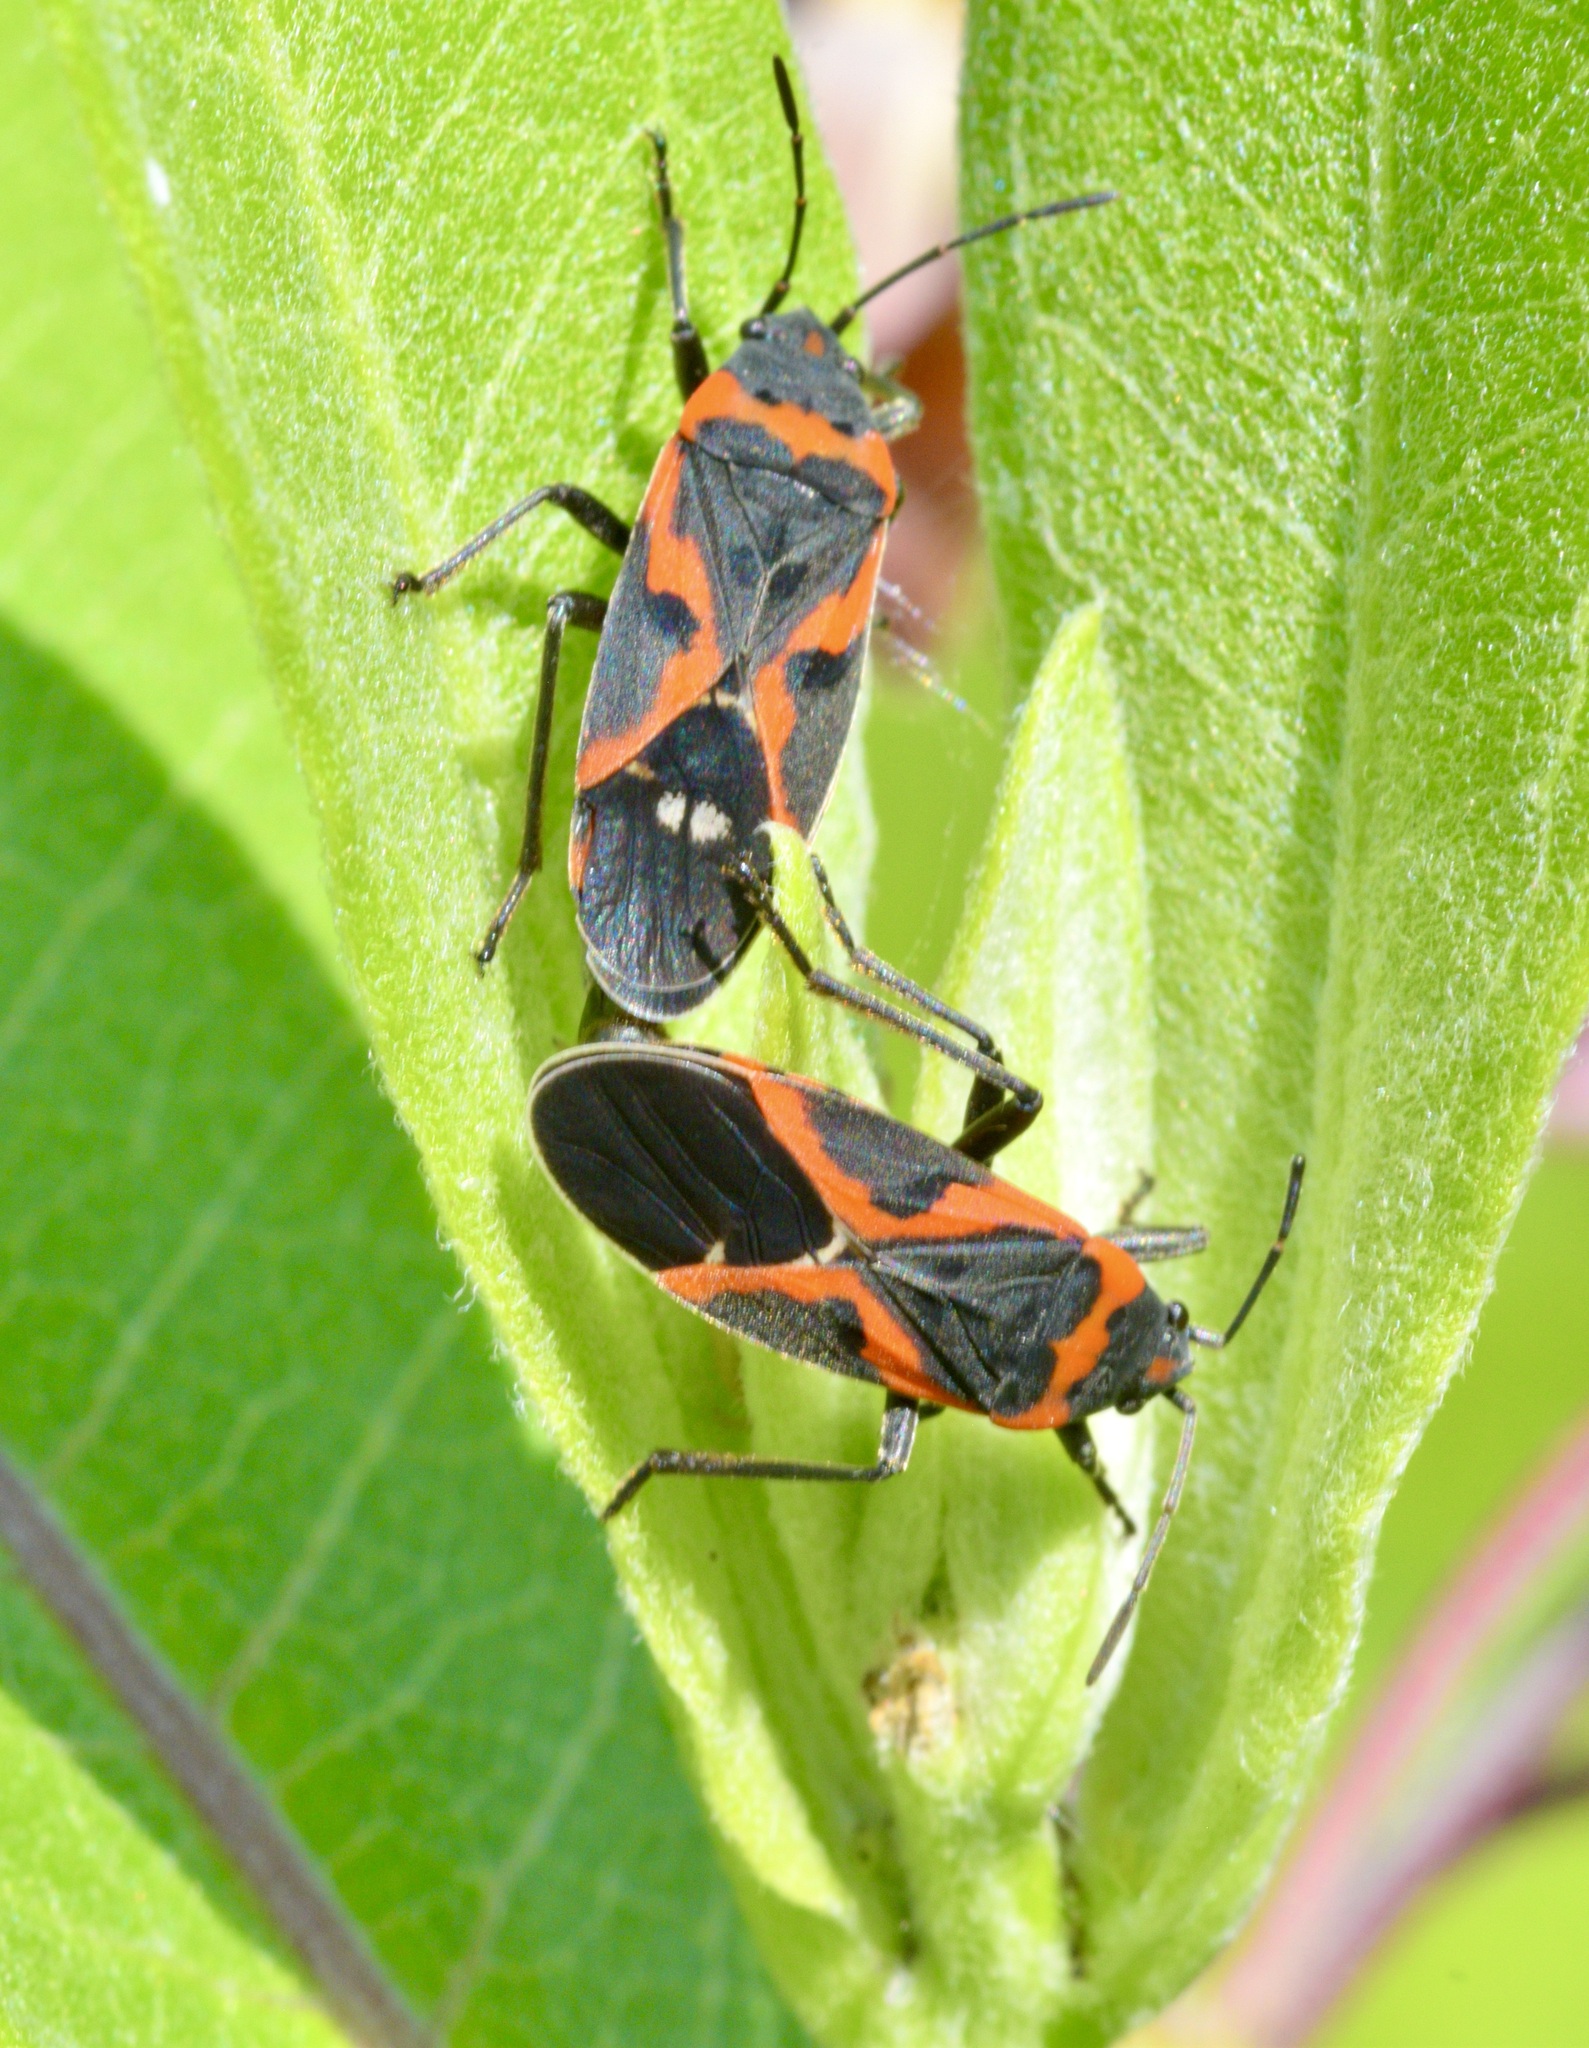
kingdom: Animalia
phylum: Arthropoda
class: Insecta
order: Hemiptera
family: Lygaeidae
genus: Lygaeus
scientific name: Lygaeus kalmii
